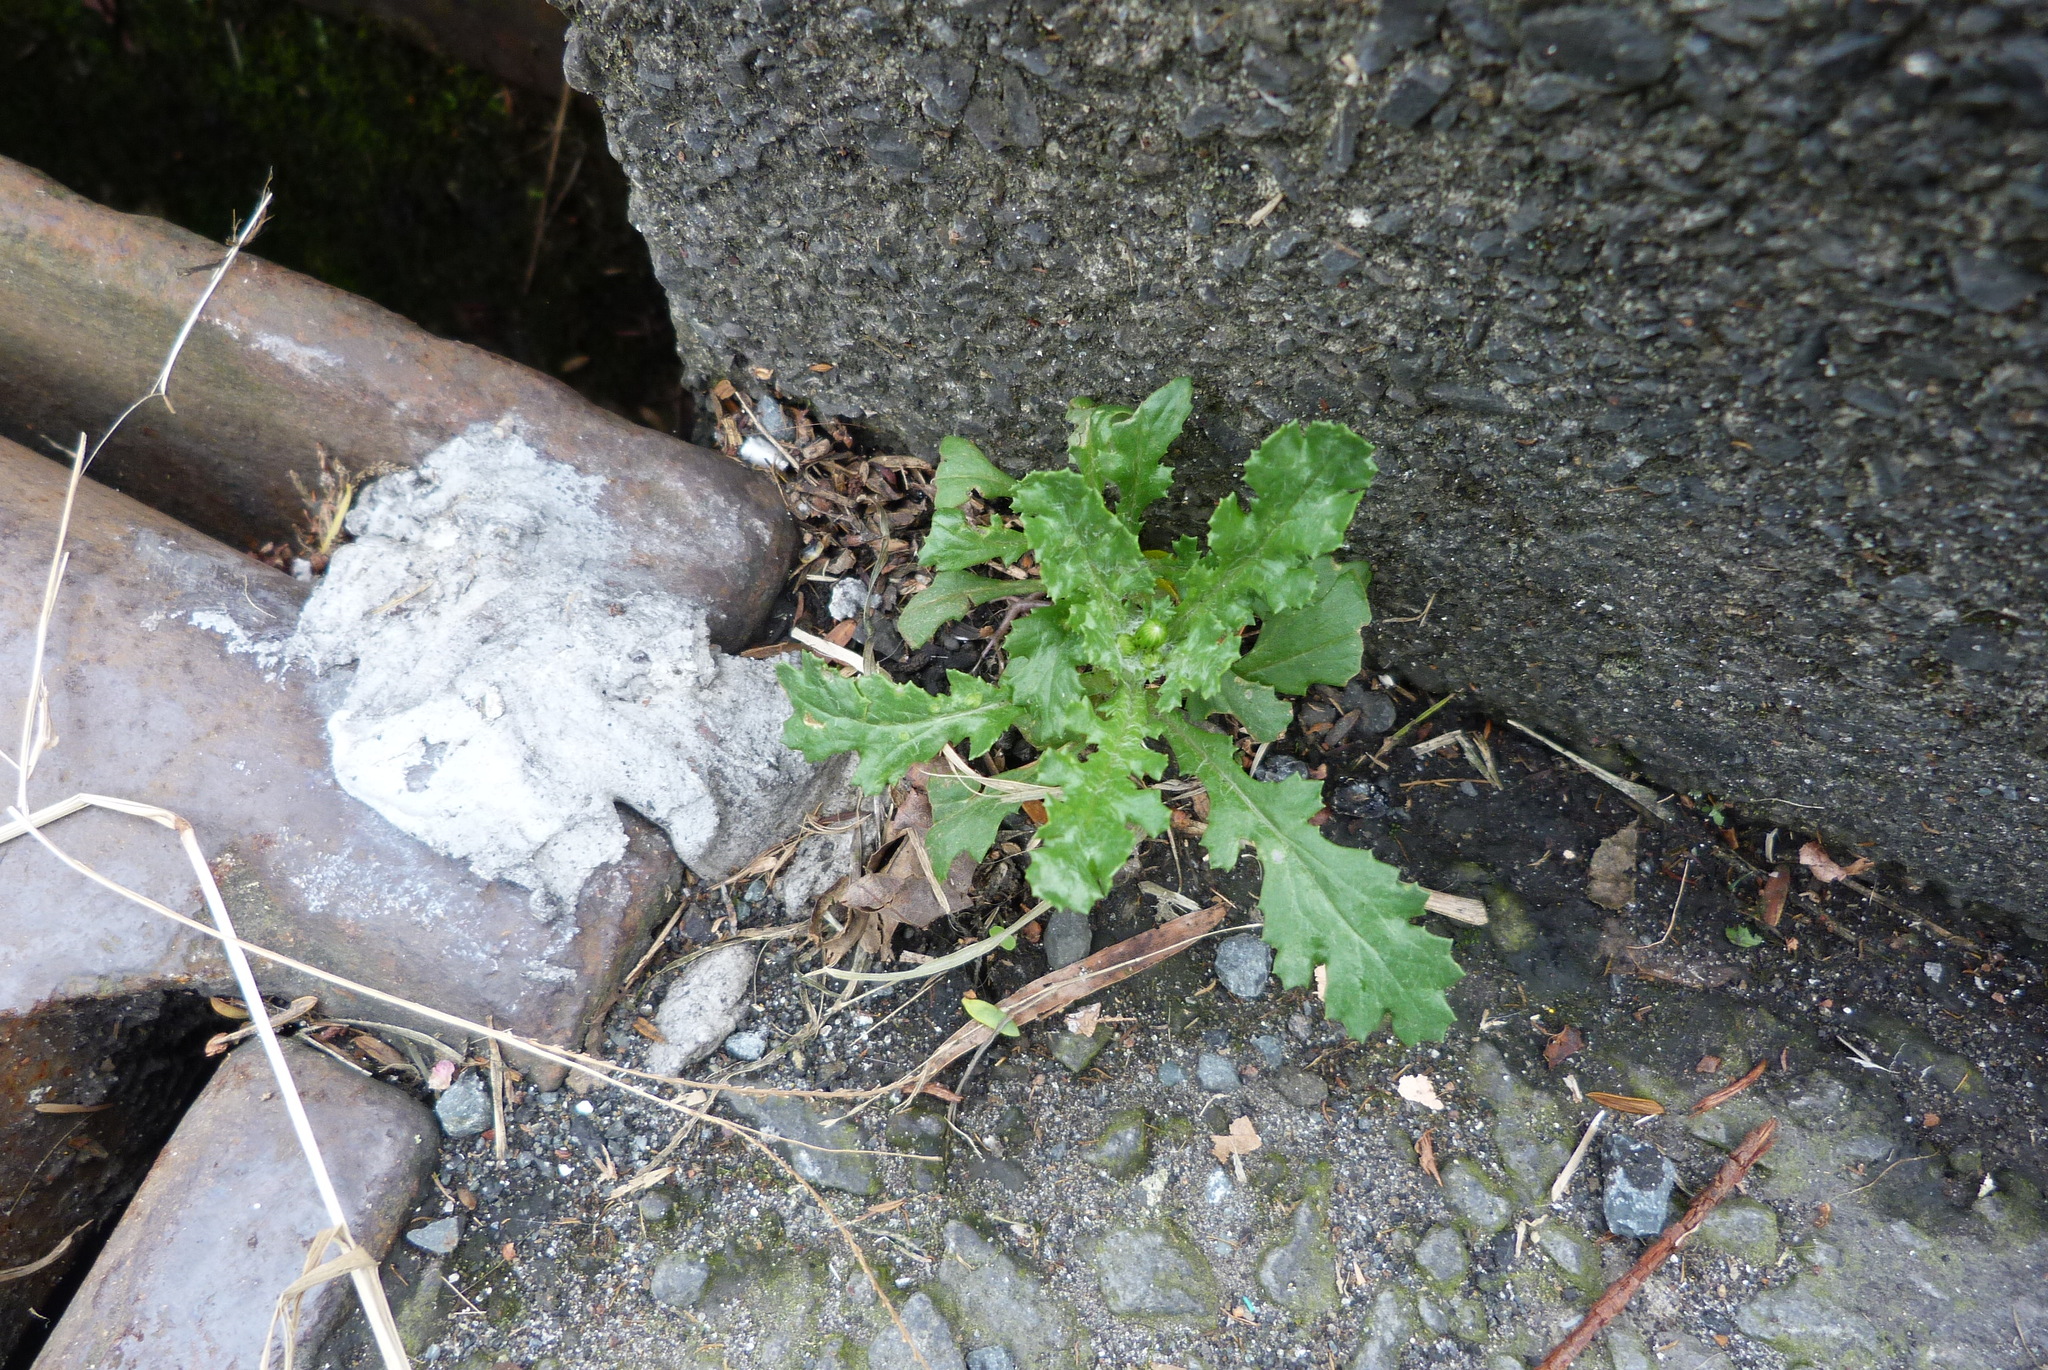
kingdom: Plantae
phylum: Tracheophyta
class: Magnoliopsida
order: Asterales
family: Asteraceae
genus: Senecio
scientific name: Senecio vulgaris
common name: Old-man-in-the-spring
